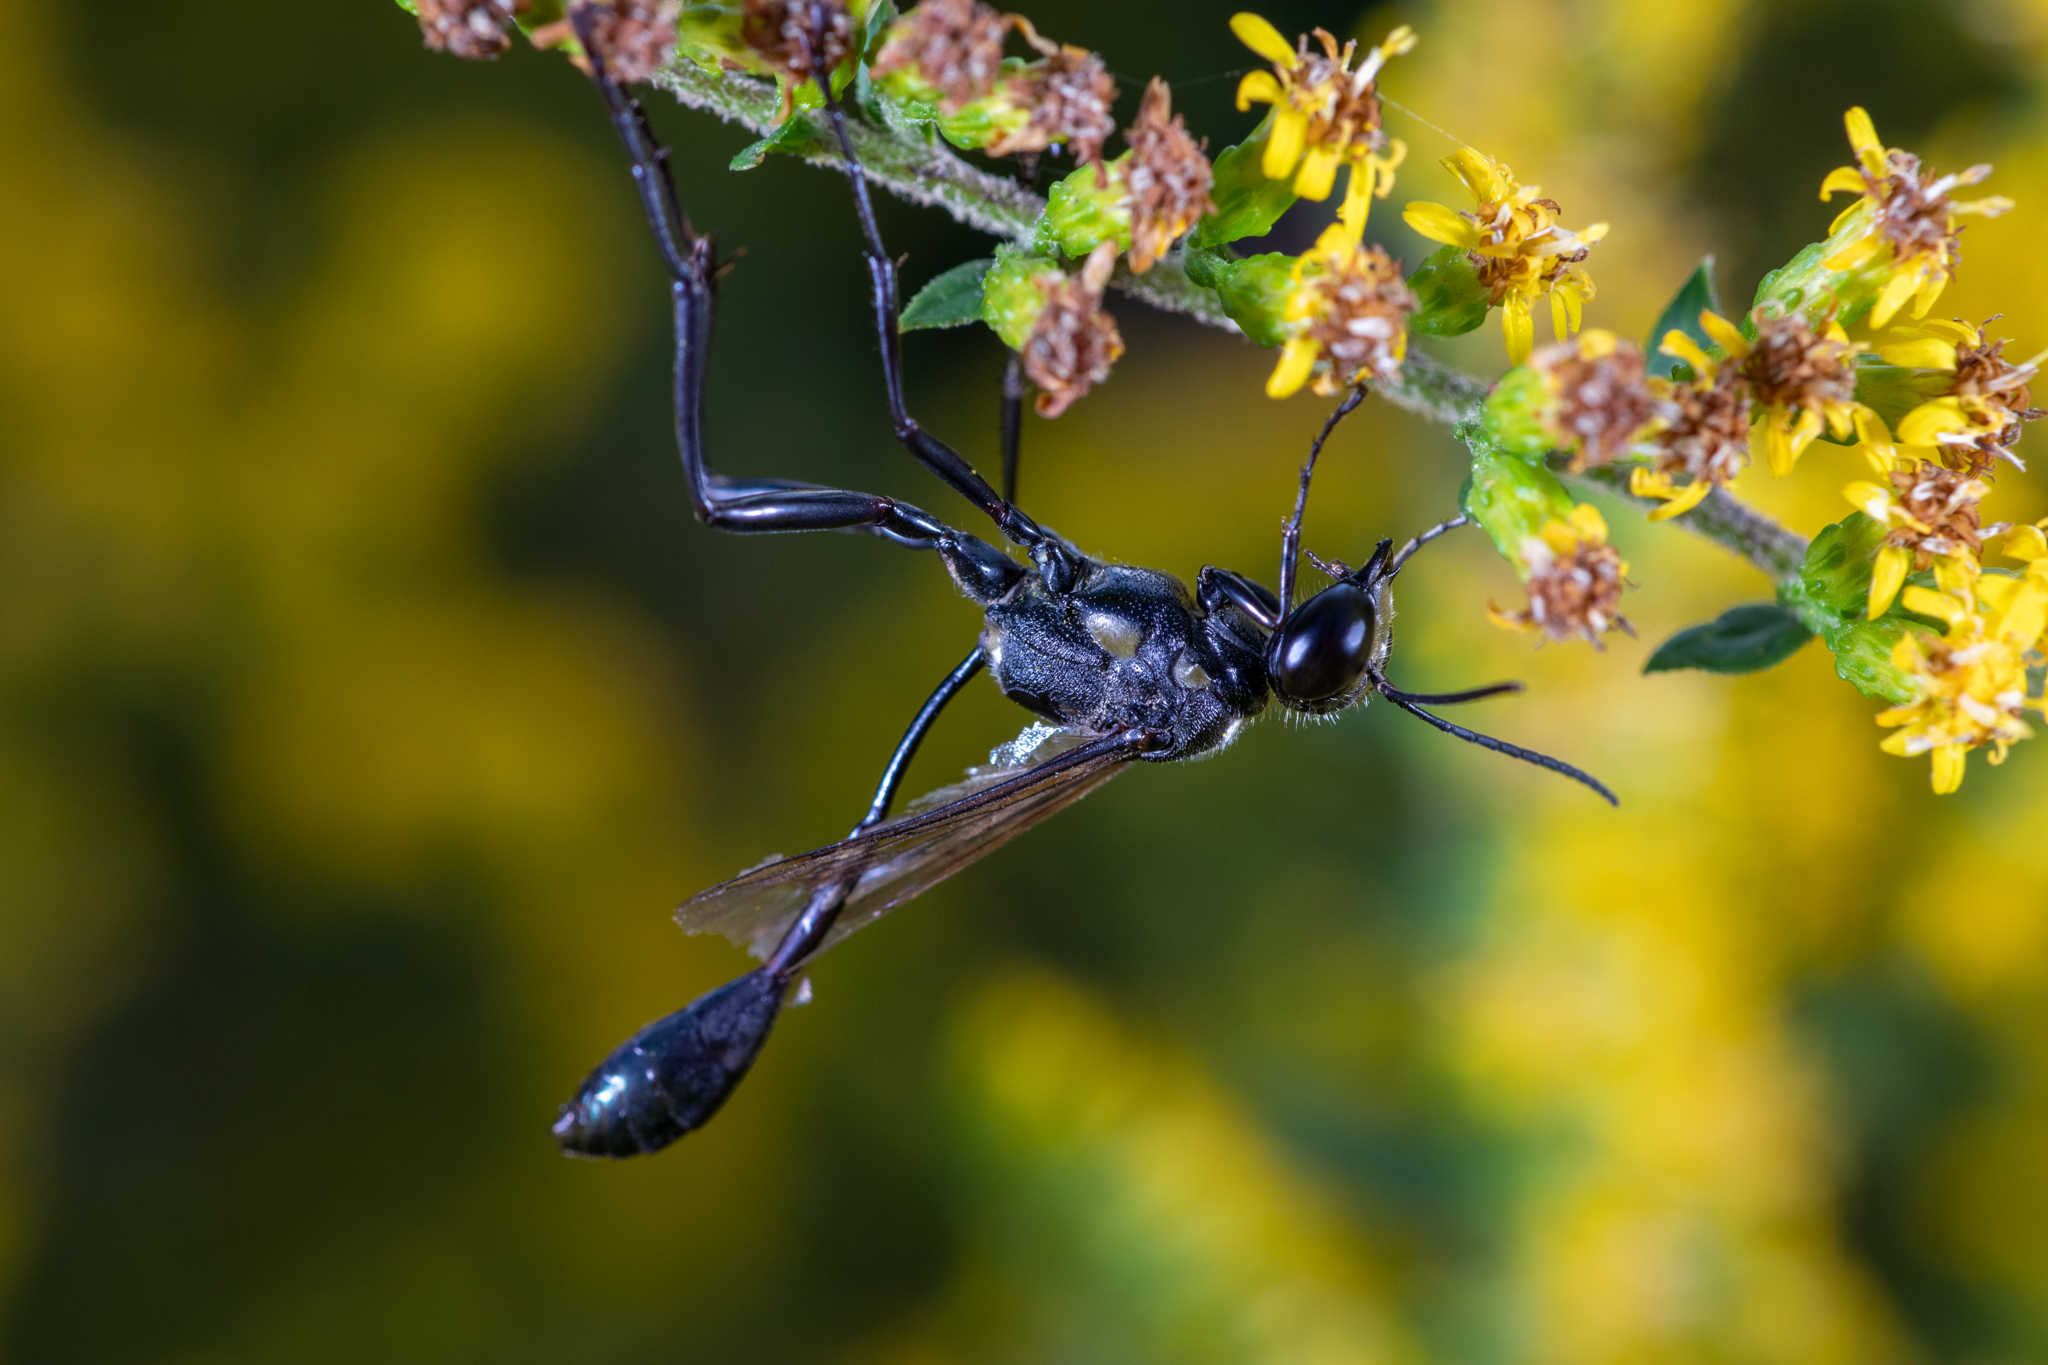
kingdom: Animalia
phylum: Arthropoda
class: Insecta
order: Hymenoptera
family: Sphecidae
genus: Eremnophila
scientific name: Eremnophila aureonotata
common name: Gold-marked thread-waisted wasp
